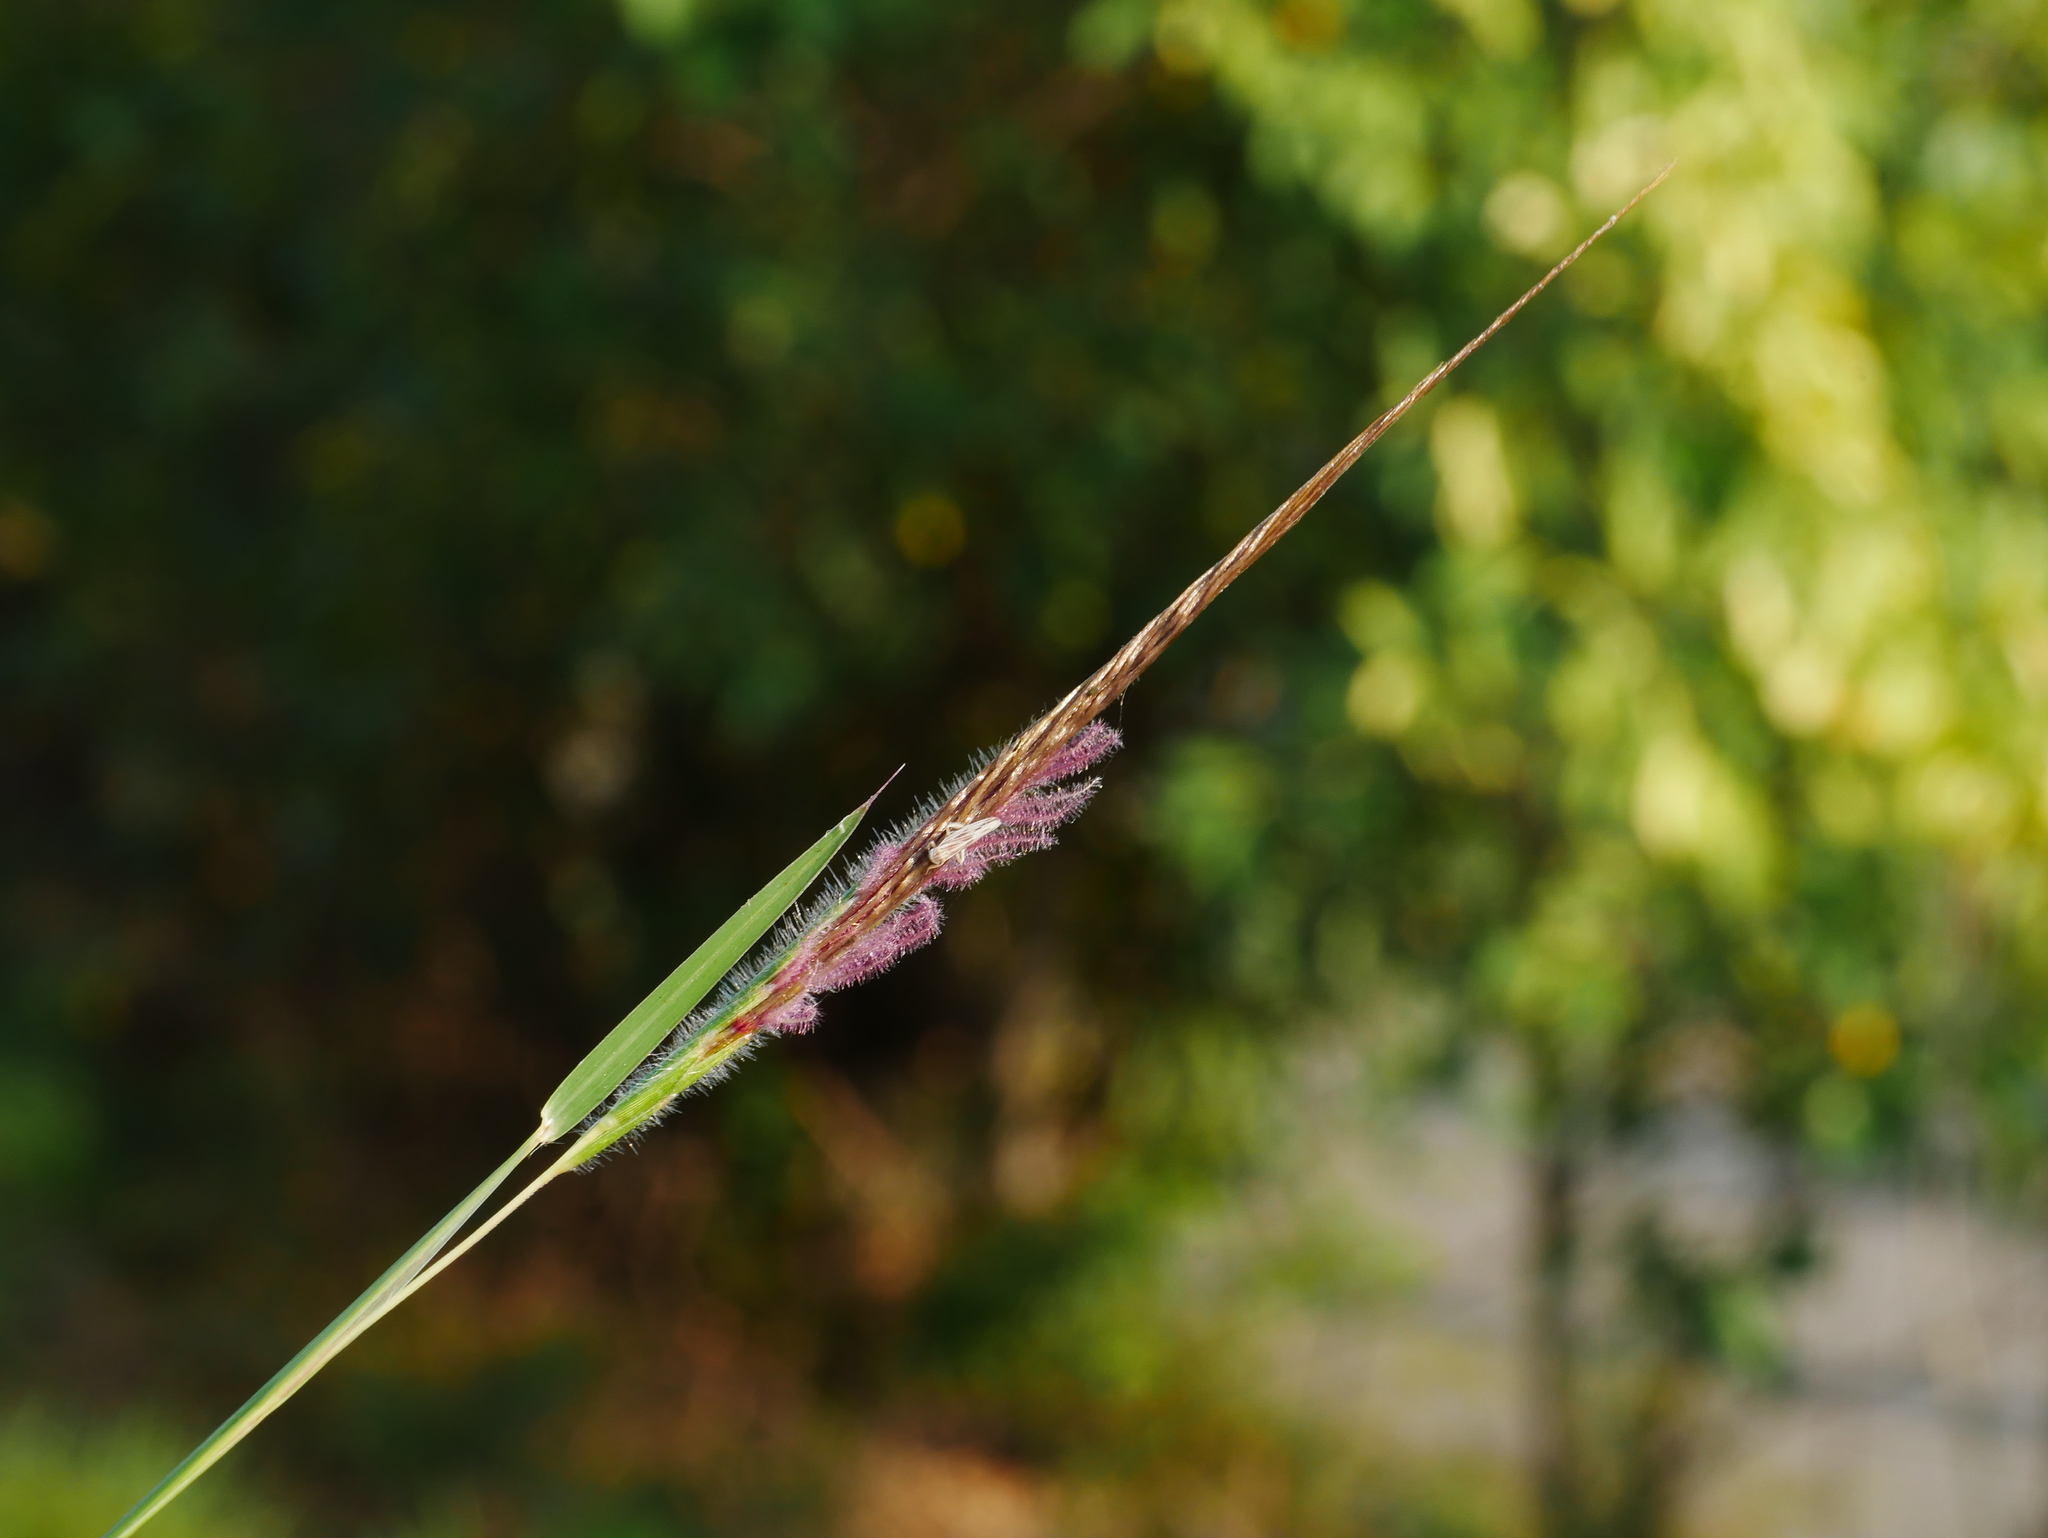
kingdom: Plantae
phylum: Tracheophyta
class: Liliopsida
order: Poales
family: Poaceae
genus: Heteropogon
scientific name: Heteropogon contortus
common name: Tanglehead
